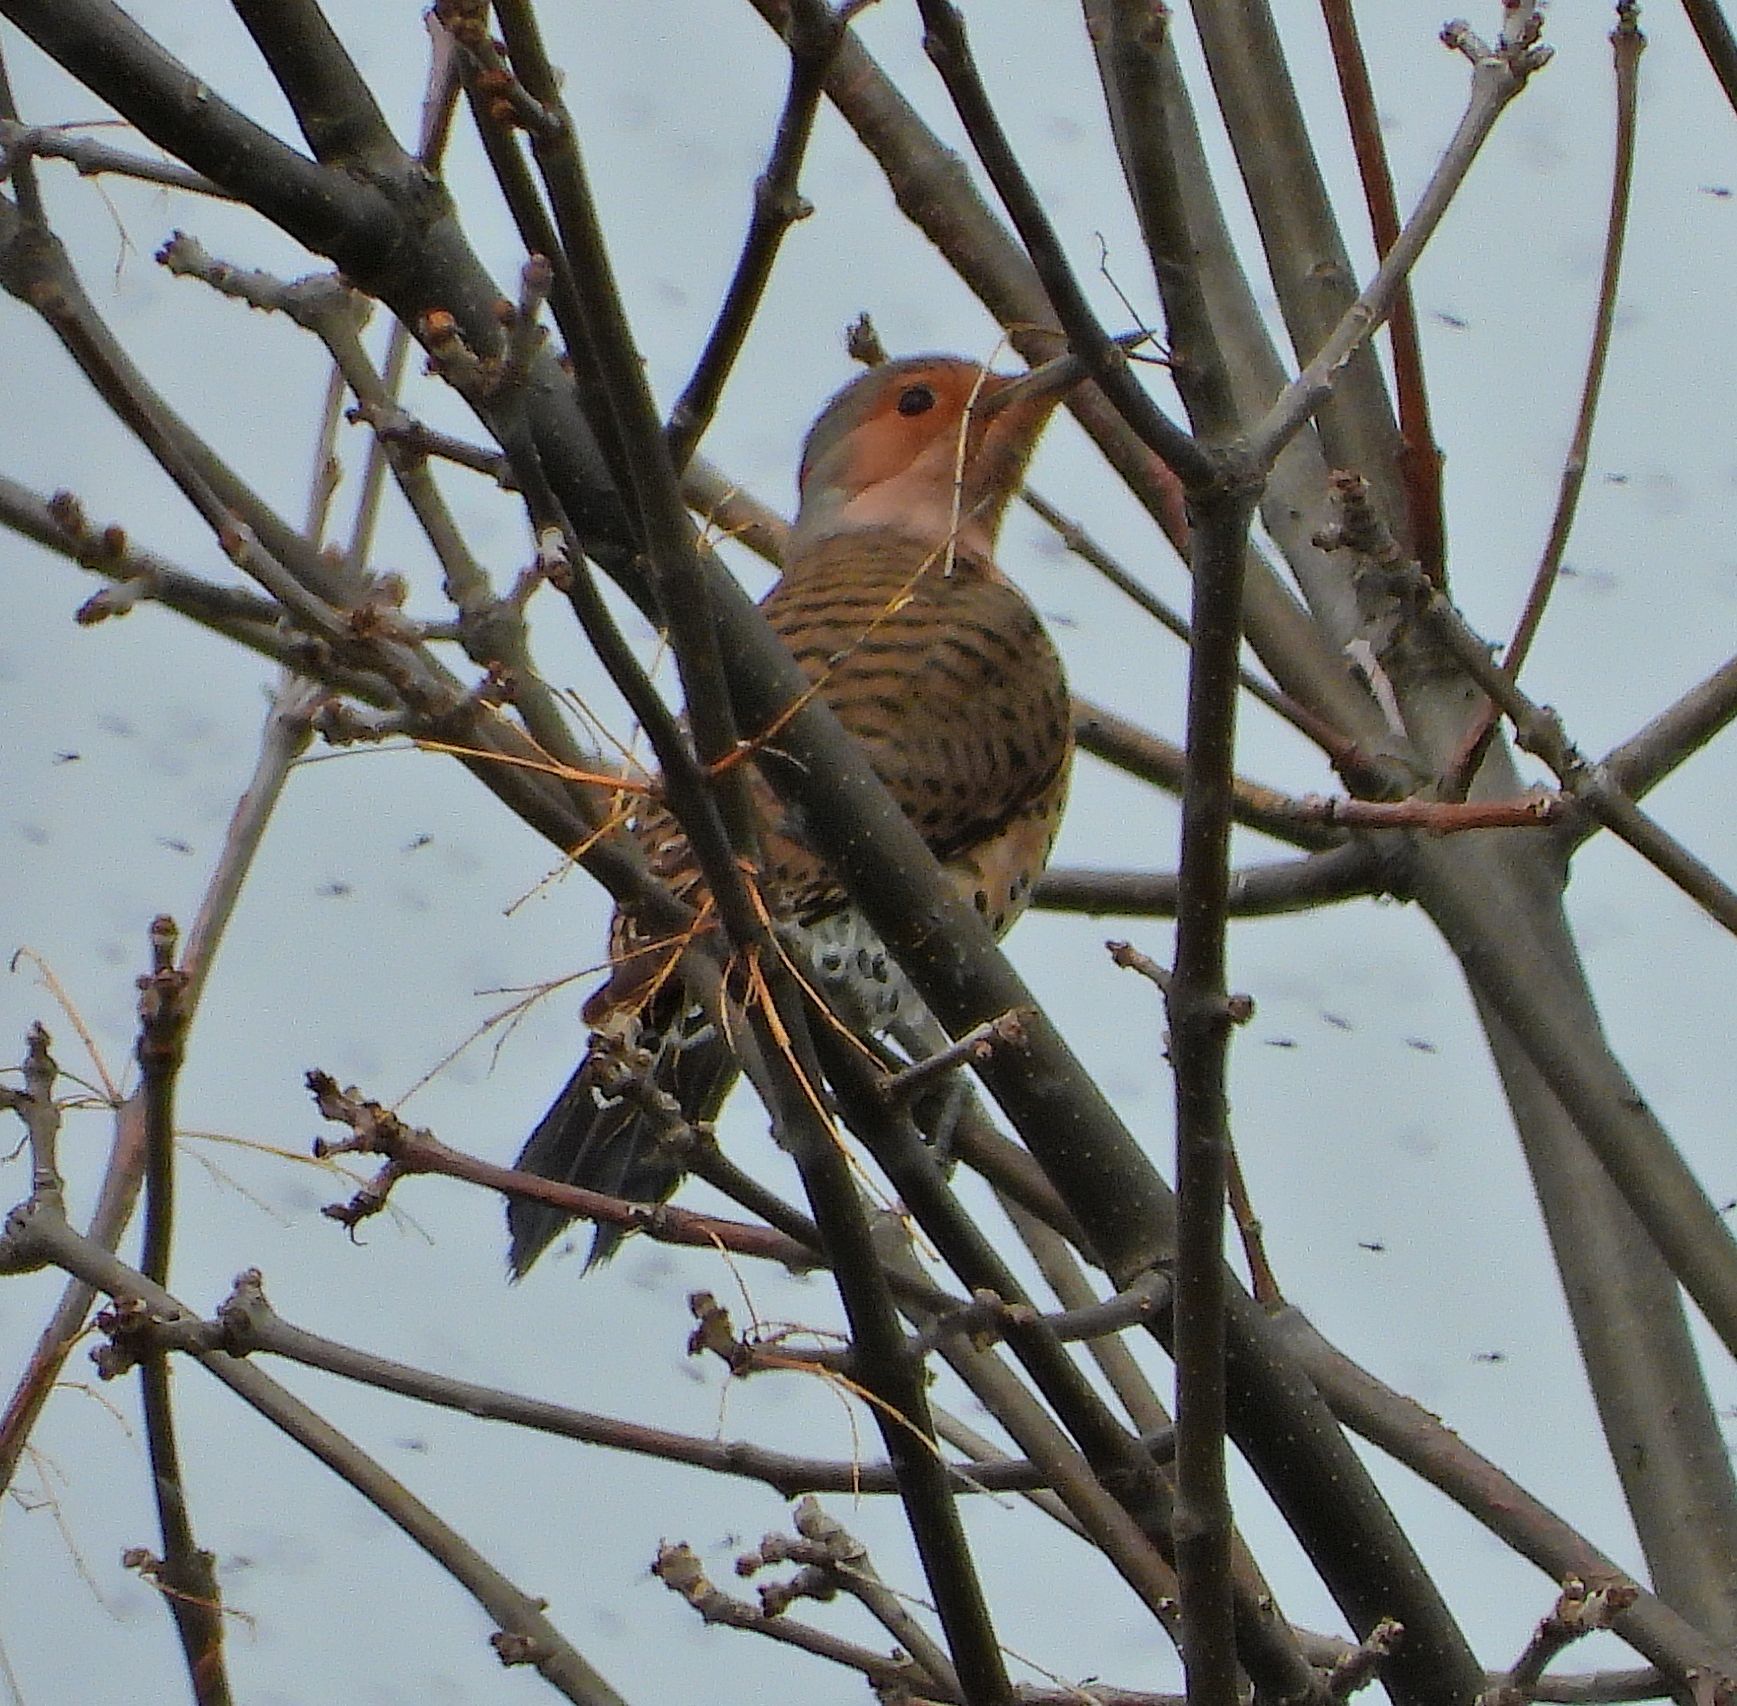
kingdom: Animalia
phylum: Chordata
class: Aves
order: Piciformes
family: Picidae
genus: Colaptes
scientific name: Colaptes auratus
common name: Northern flicker
